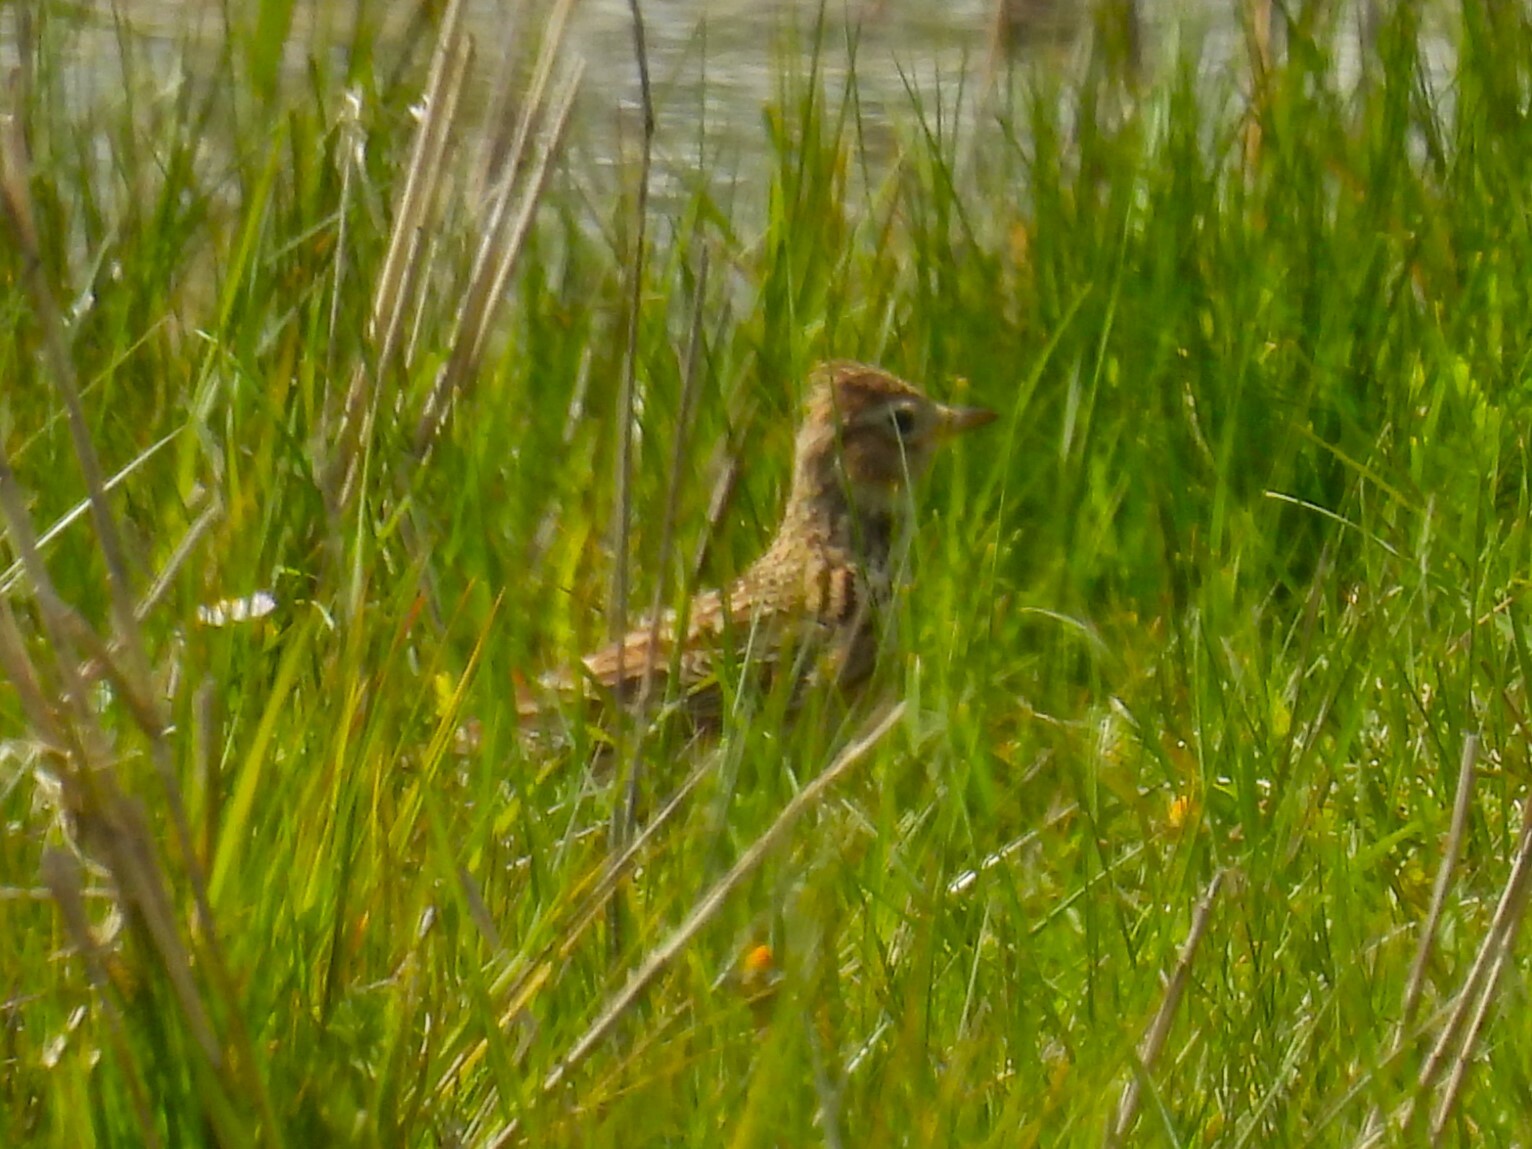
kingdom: Animalia
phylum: Chordata
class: Aves
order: Passeriformes
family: Alaudidae
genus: Alauda
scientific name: Alauda arvensis
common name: Eurasian skylark
